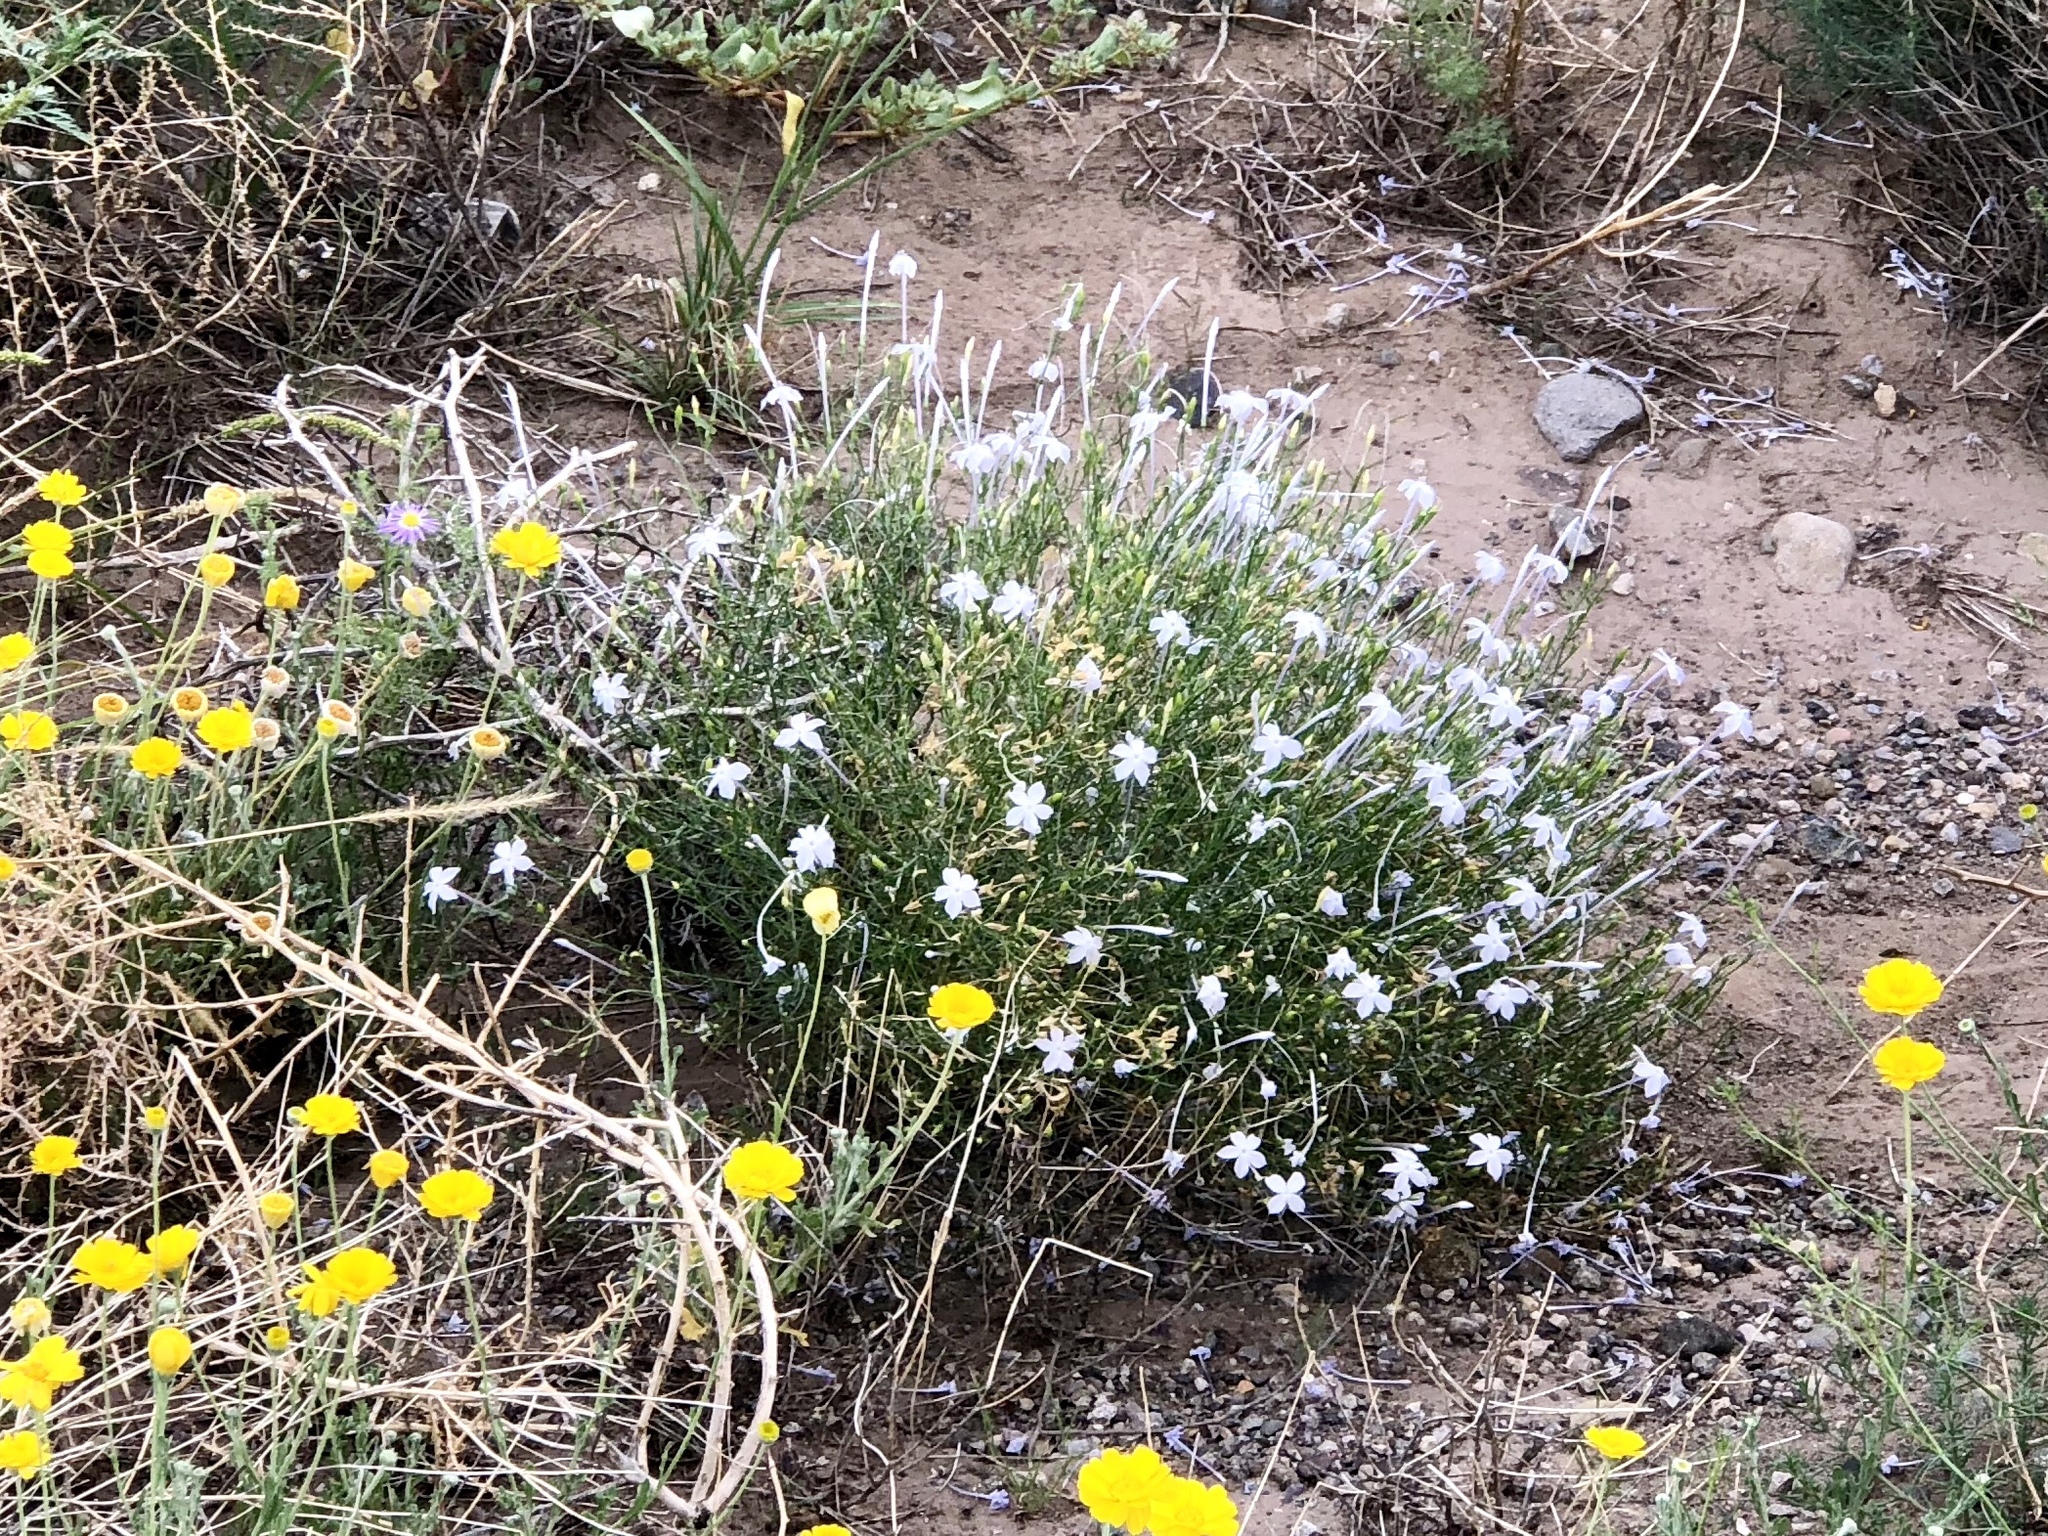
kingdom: Plantae
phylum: Tracheophyta
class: Magnoliopsida
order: Ericales
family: Polemoniaceae
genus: Ipomopsis
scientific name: Ipomopsis longiflora
